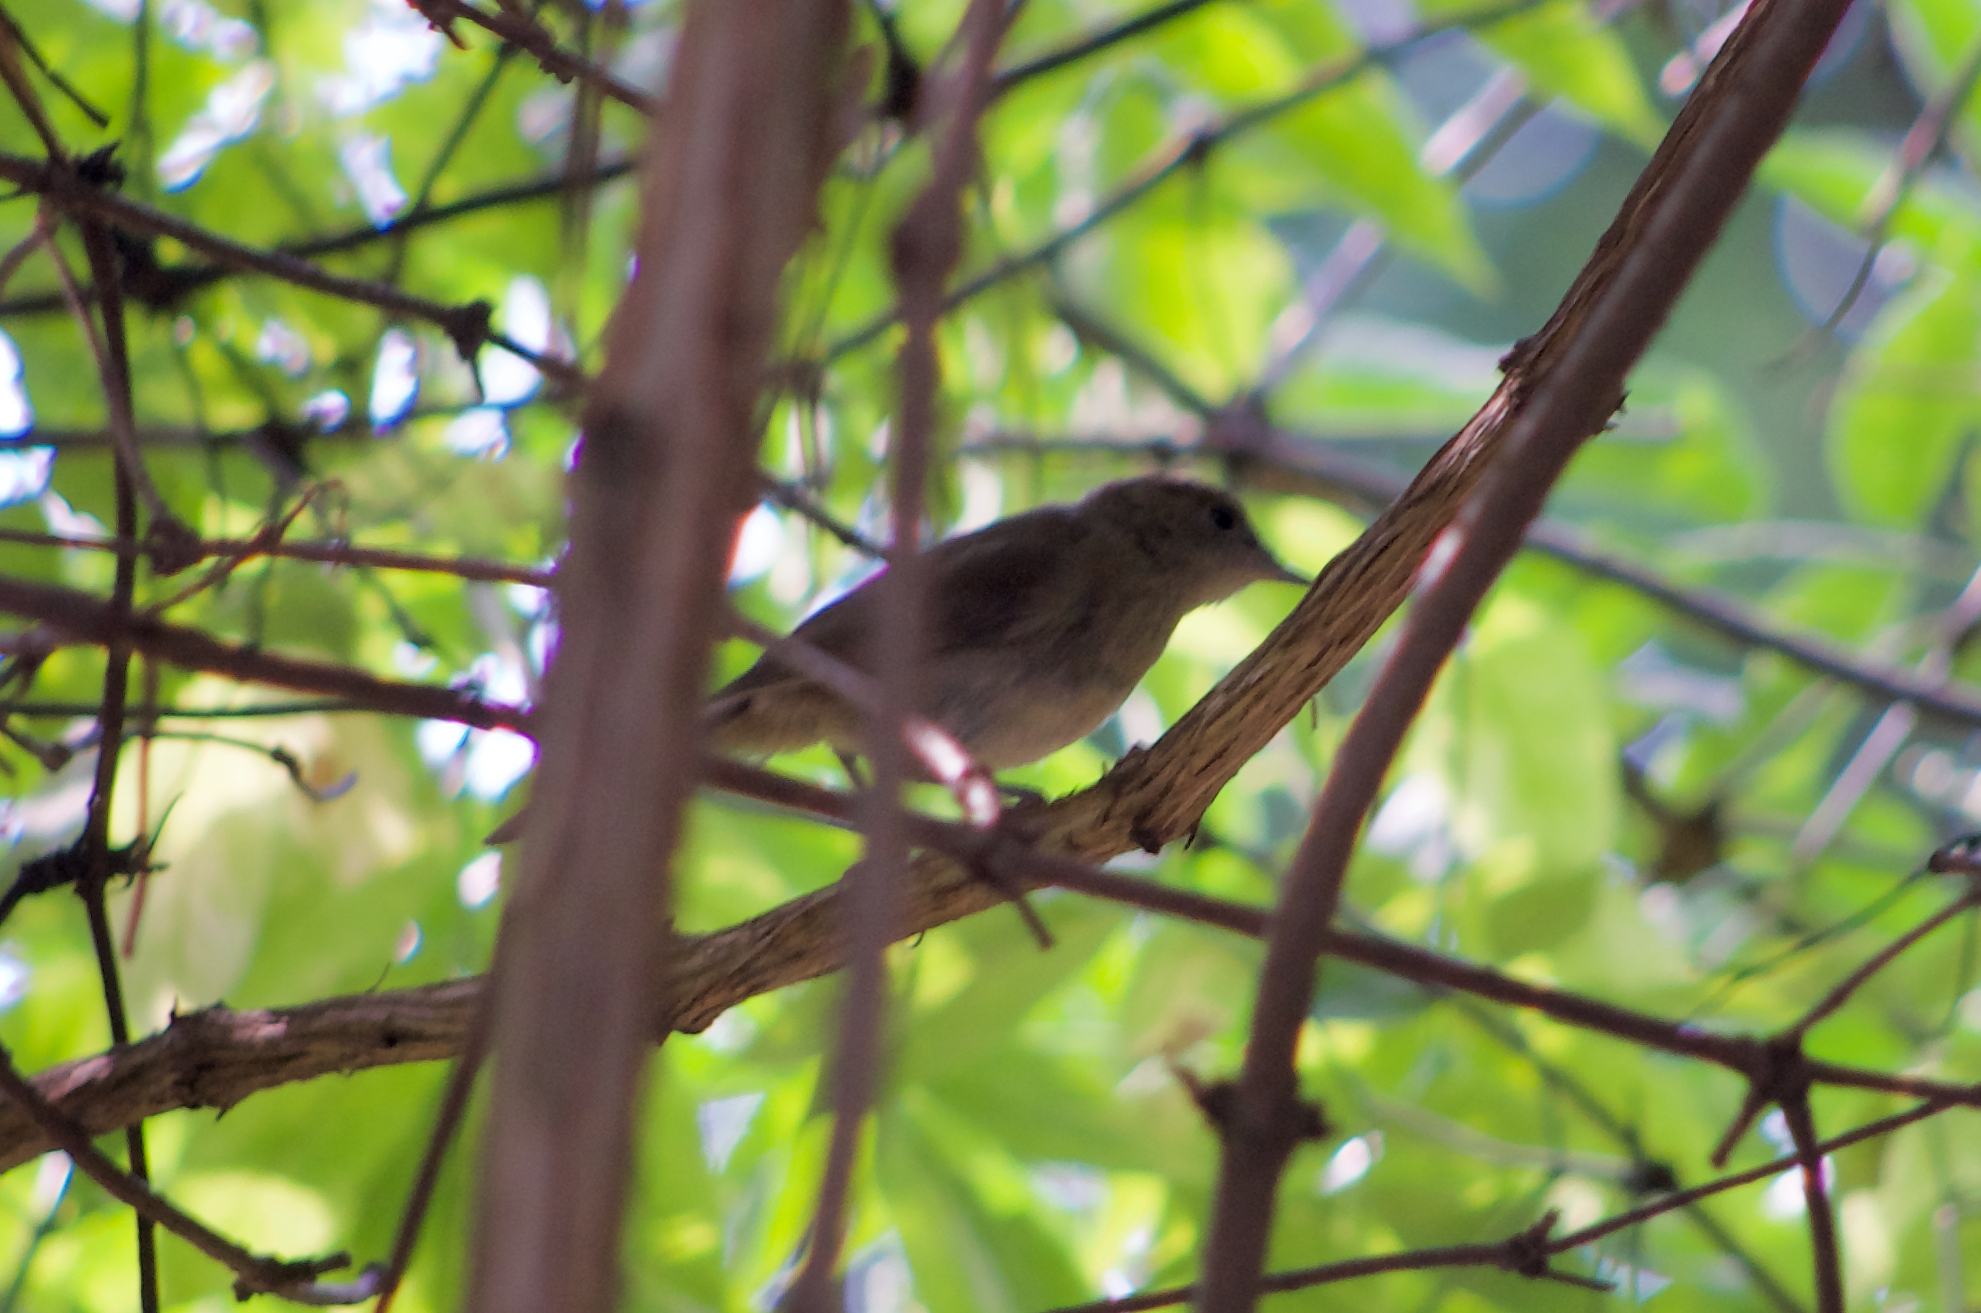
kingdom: Animalia
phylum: Chordata
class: Aves
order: Passeriformes
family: Sylviidae
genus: Sylvia
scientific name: Sylvia atricapilla
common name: Eurasian blackcap
